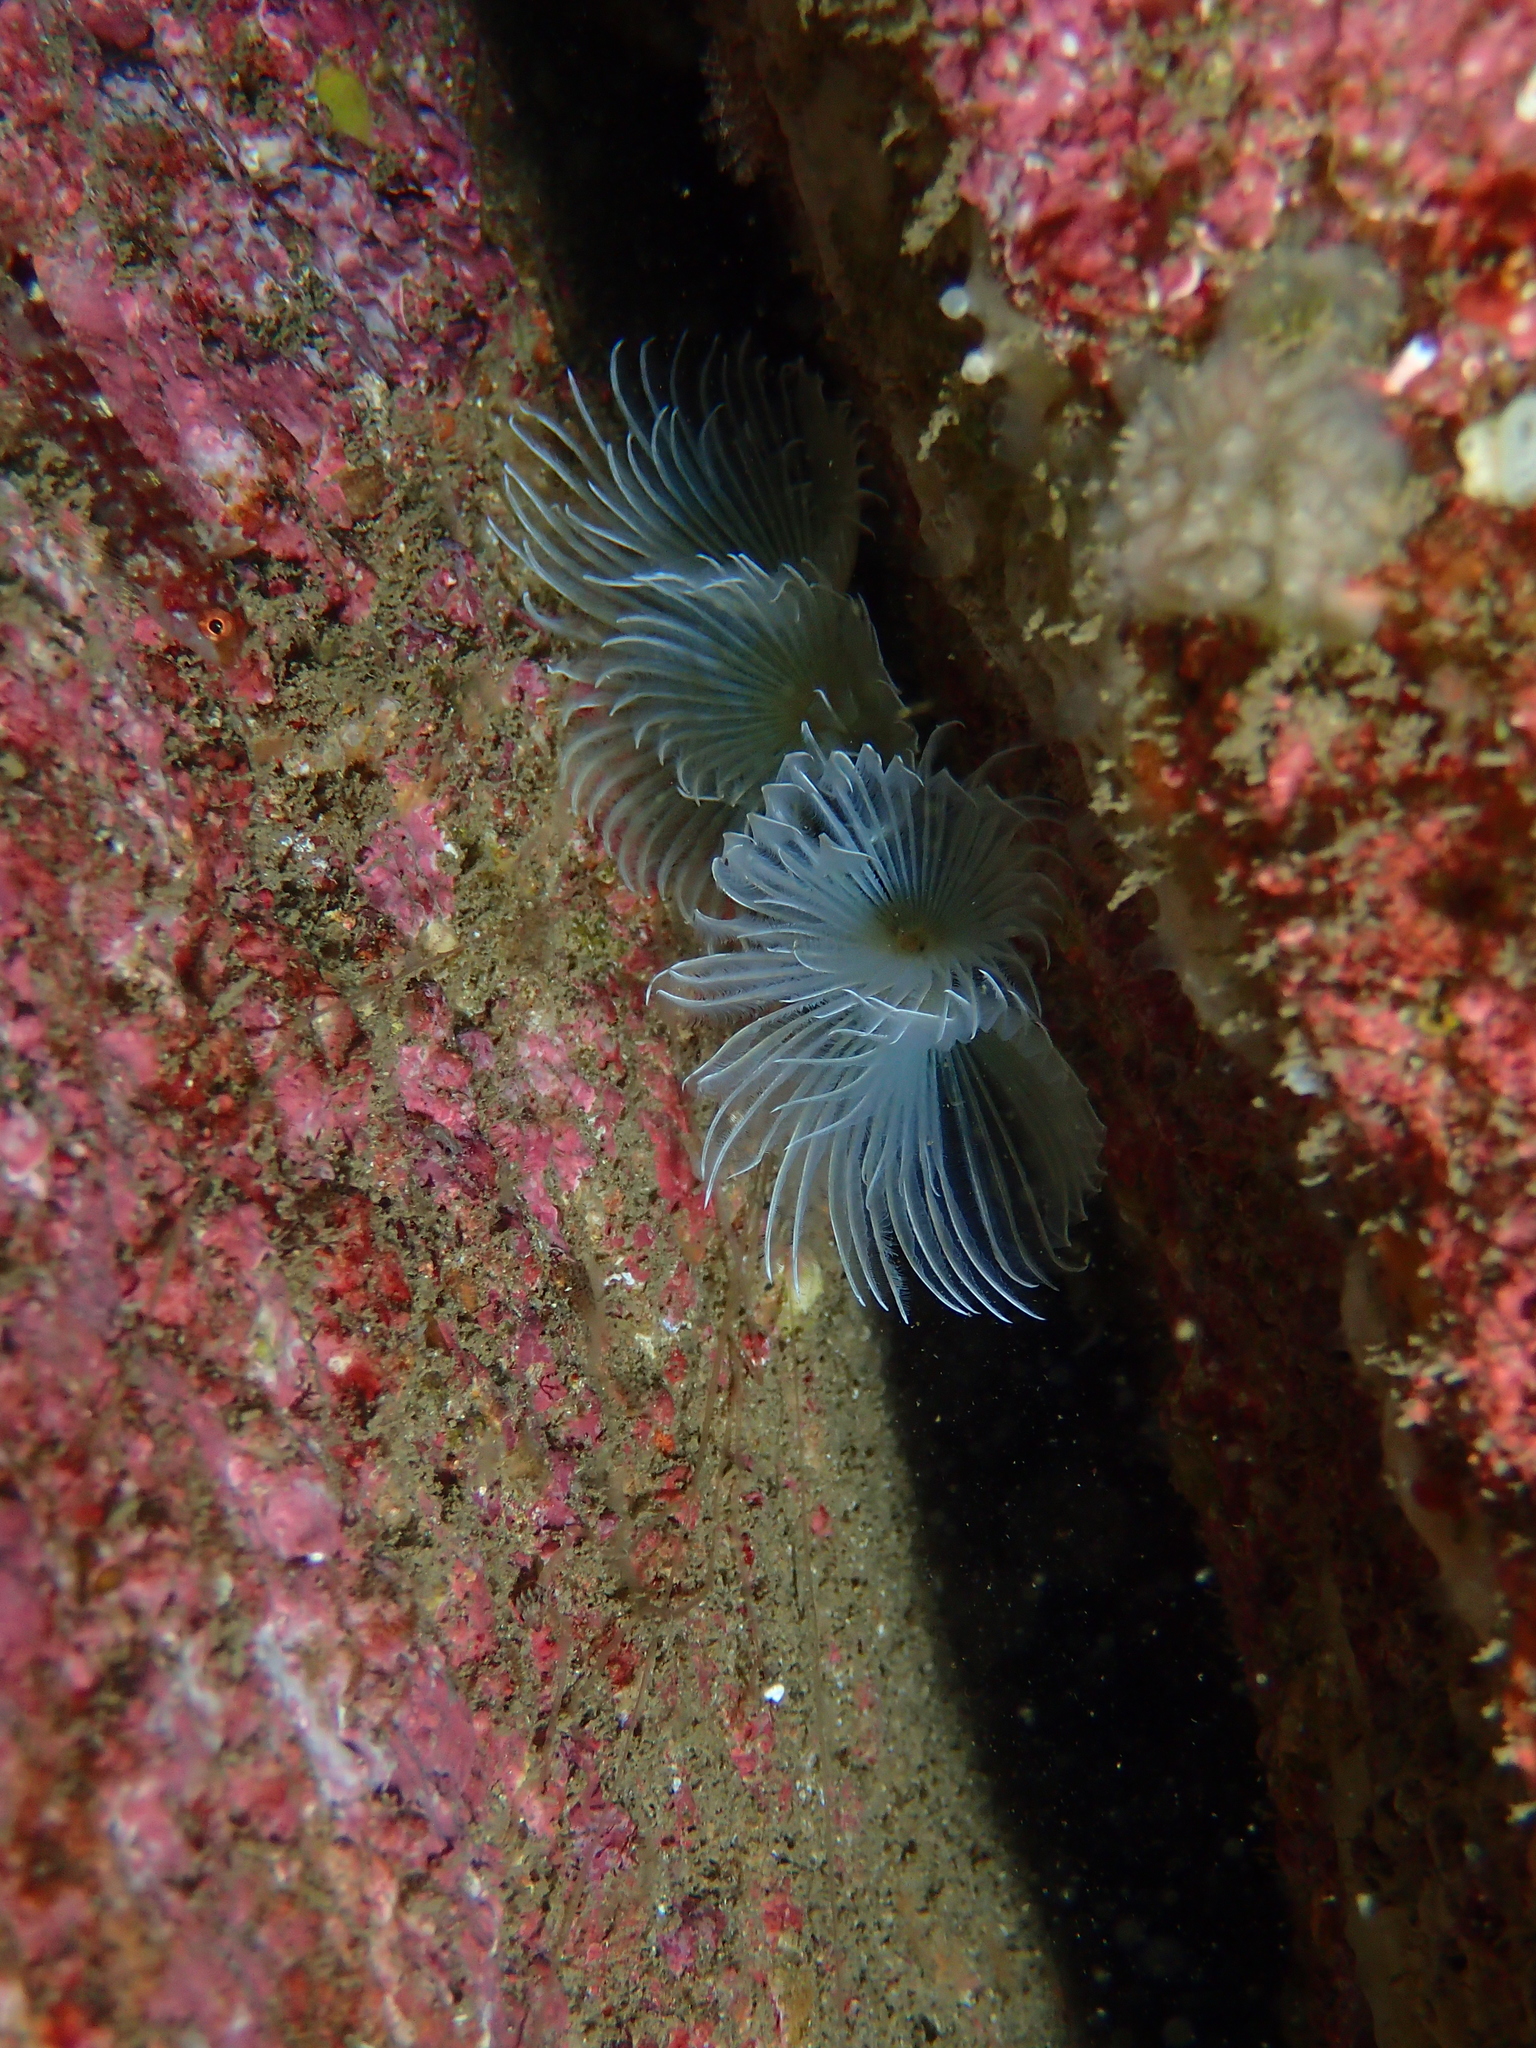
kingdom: Animalia
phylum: Annelida
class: Polychaeta
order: Sabellida
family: Sabellidae
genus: Bispira
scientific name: Bispira volutacornis
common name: Twin fan worm
